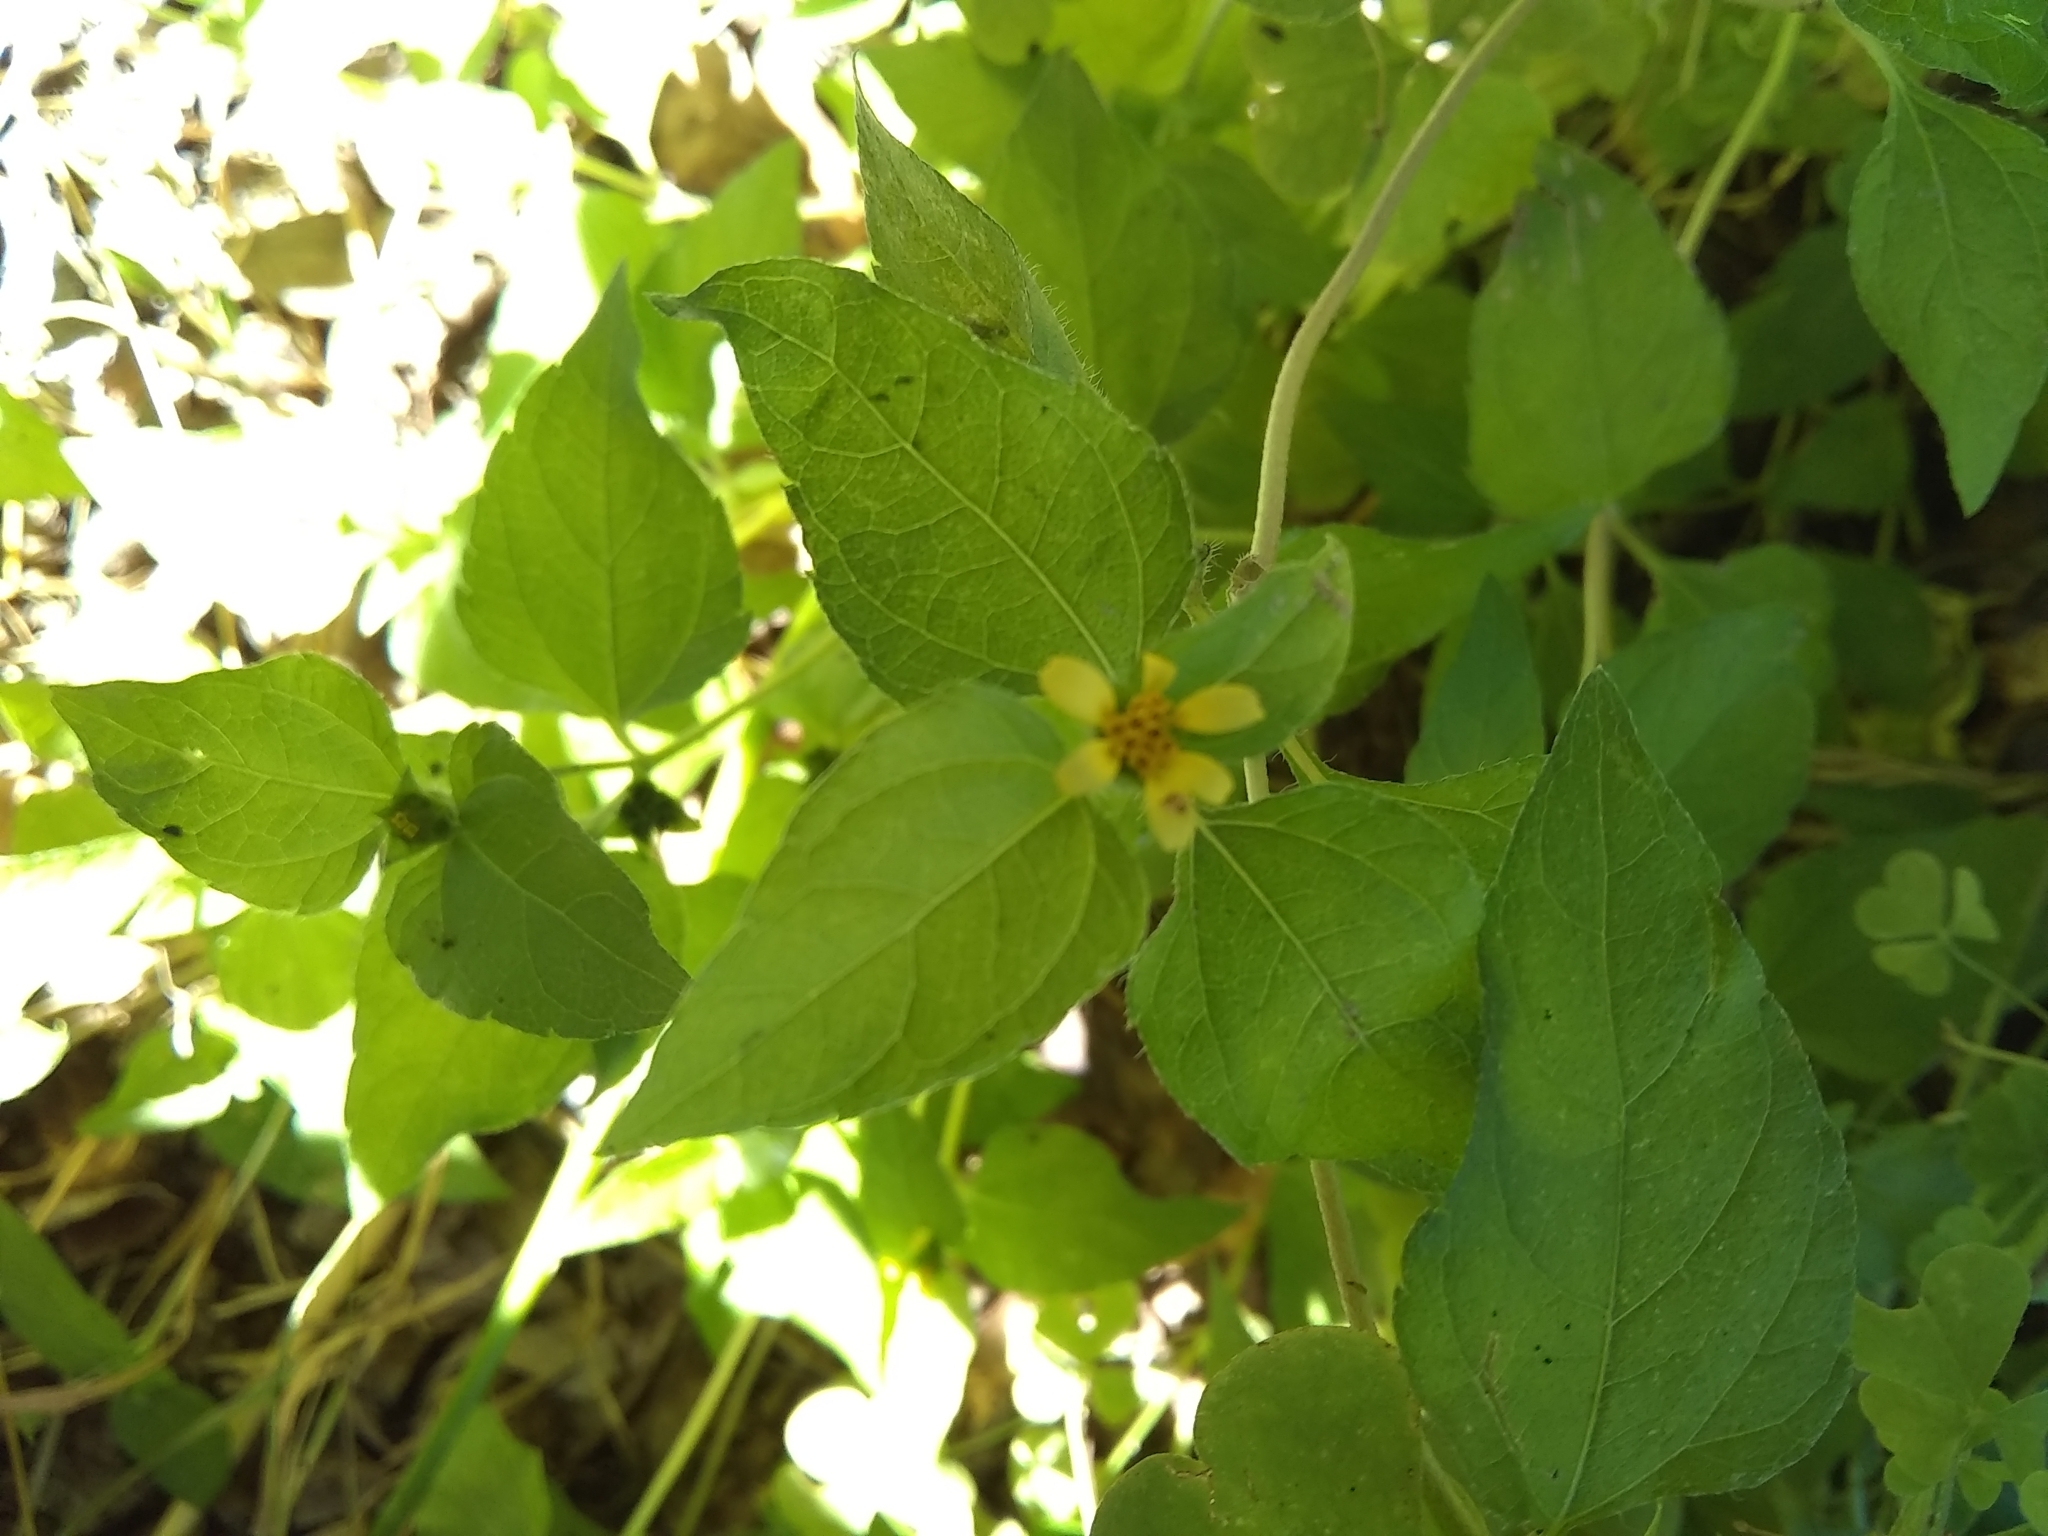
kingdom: Plantae
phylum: Tracheophyta
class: Magnoliopsida
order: Asterales
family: Asteraceae
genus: Calyptocarpus
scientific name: Calyptocarpus vialis
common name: Straggler daisy
